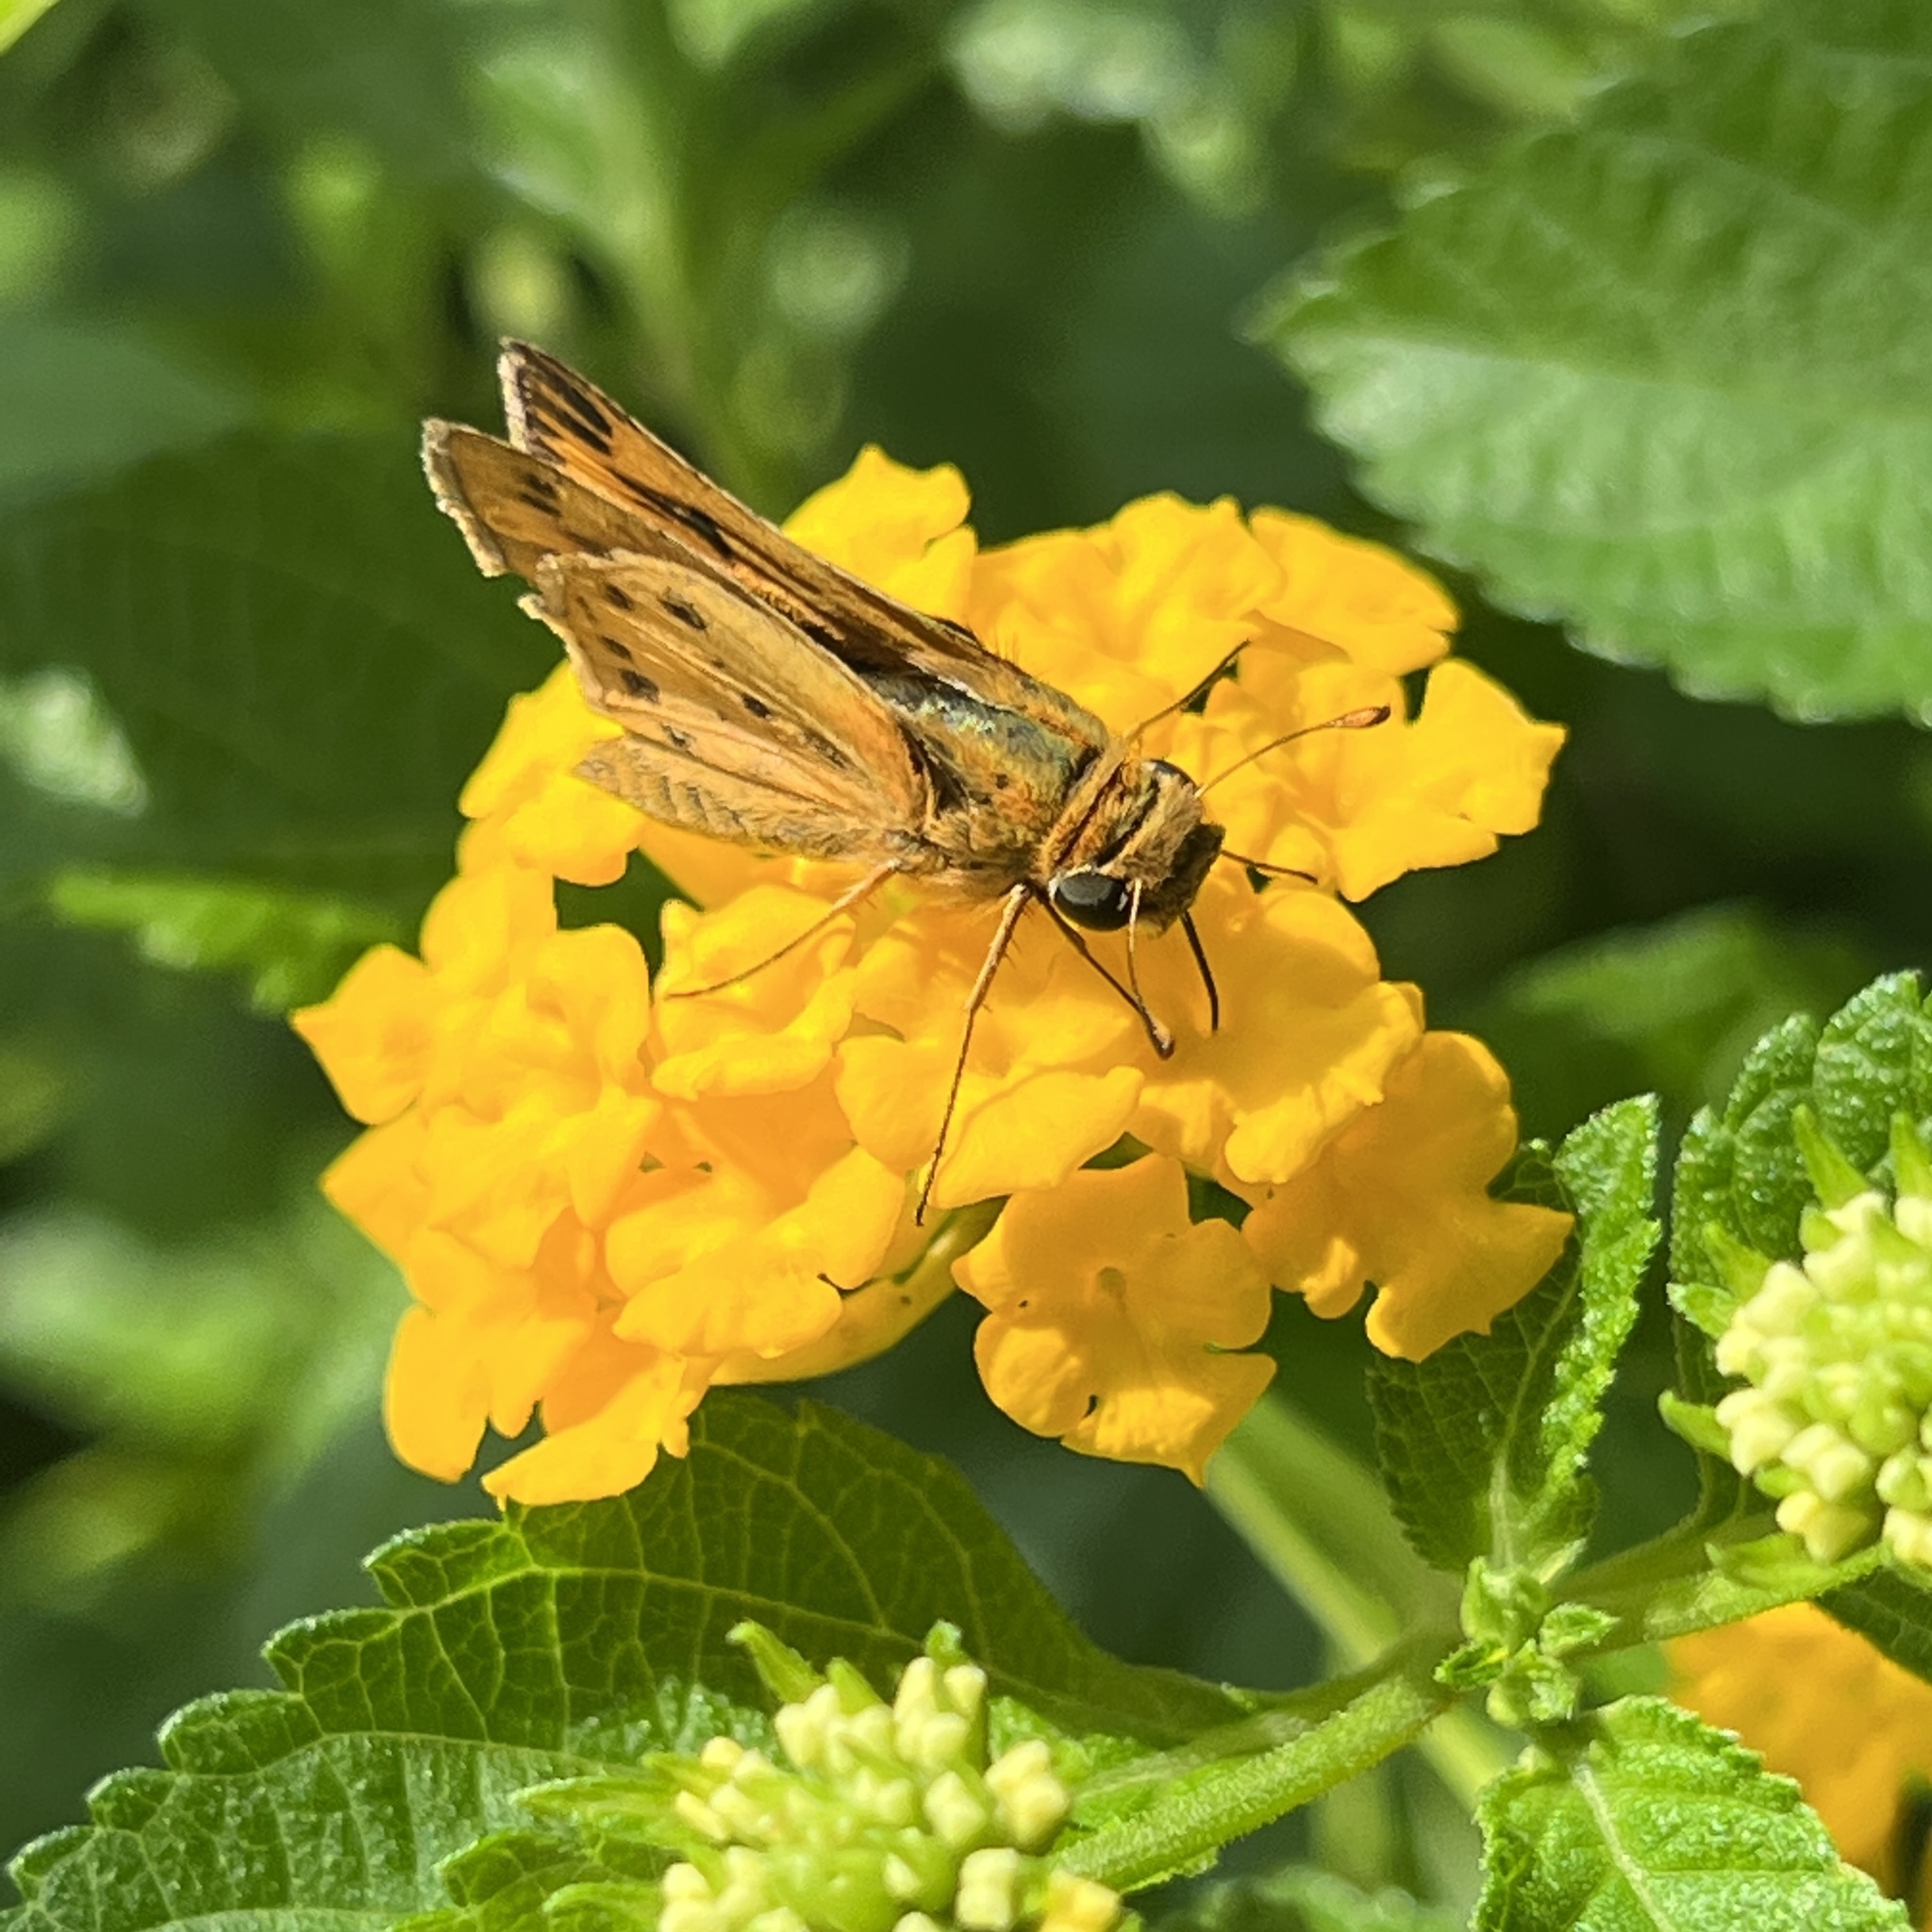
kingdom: Animalia
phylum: Arthropoda
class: Insecta
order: Lepidoptera
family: Hesperiidae
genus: Hylephila
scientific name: Hylephila phyleus
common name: Fiery skipper
